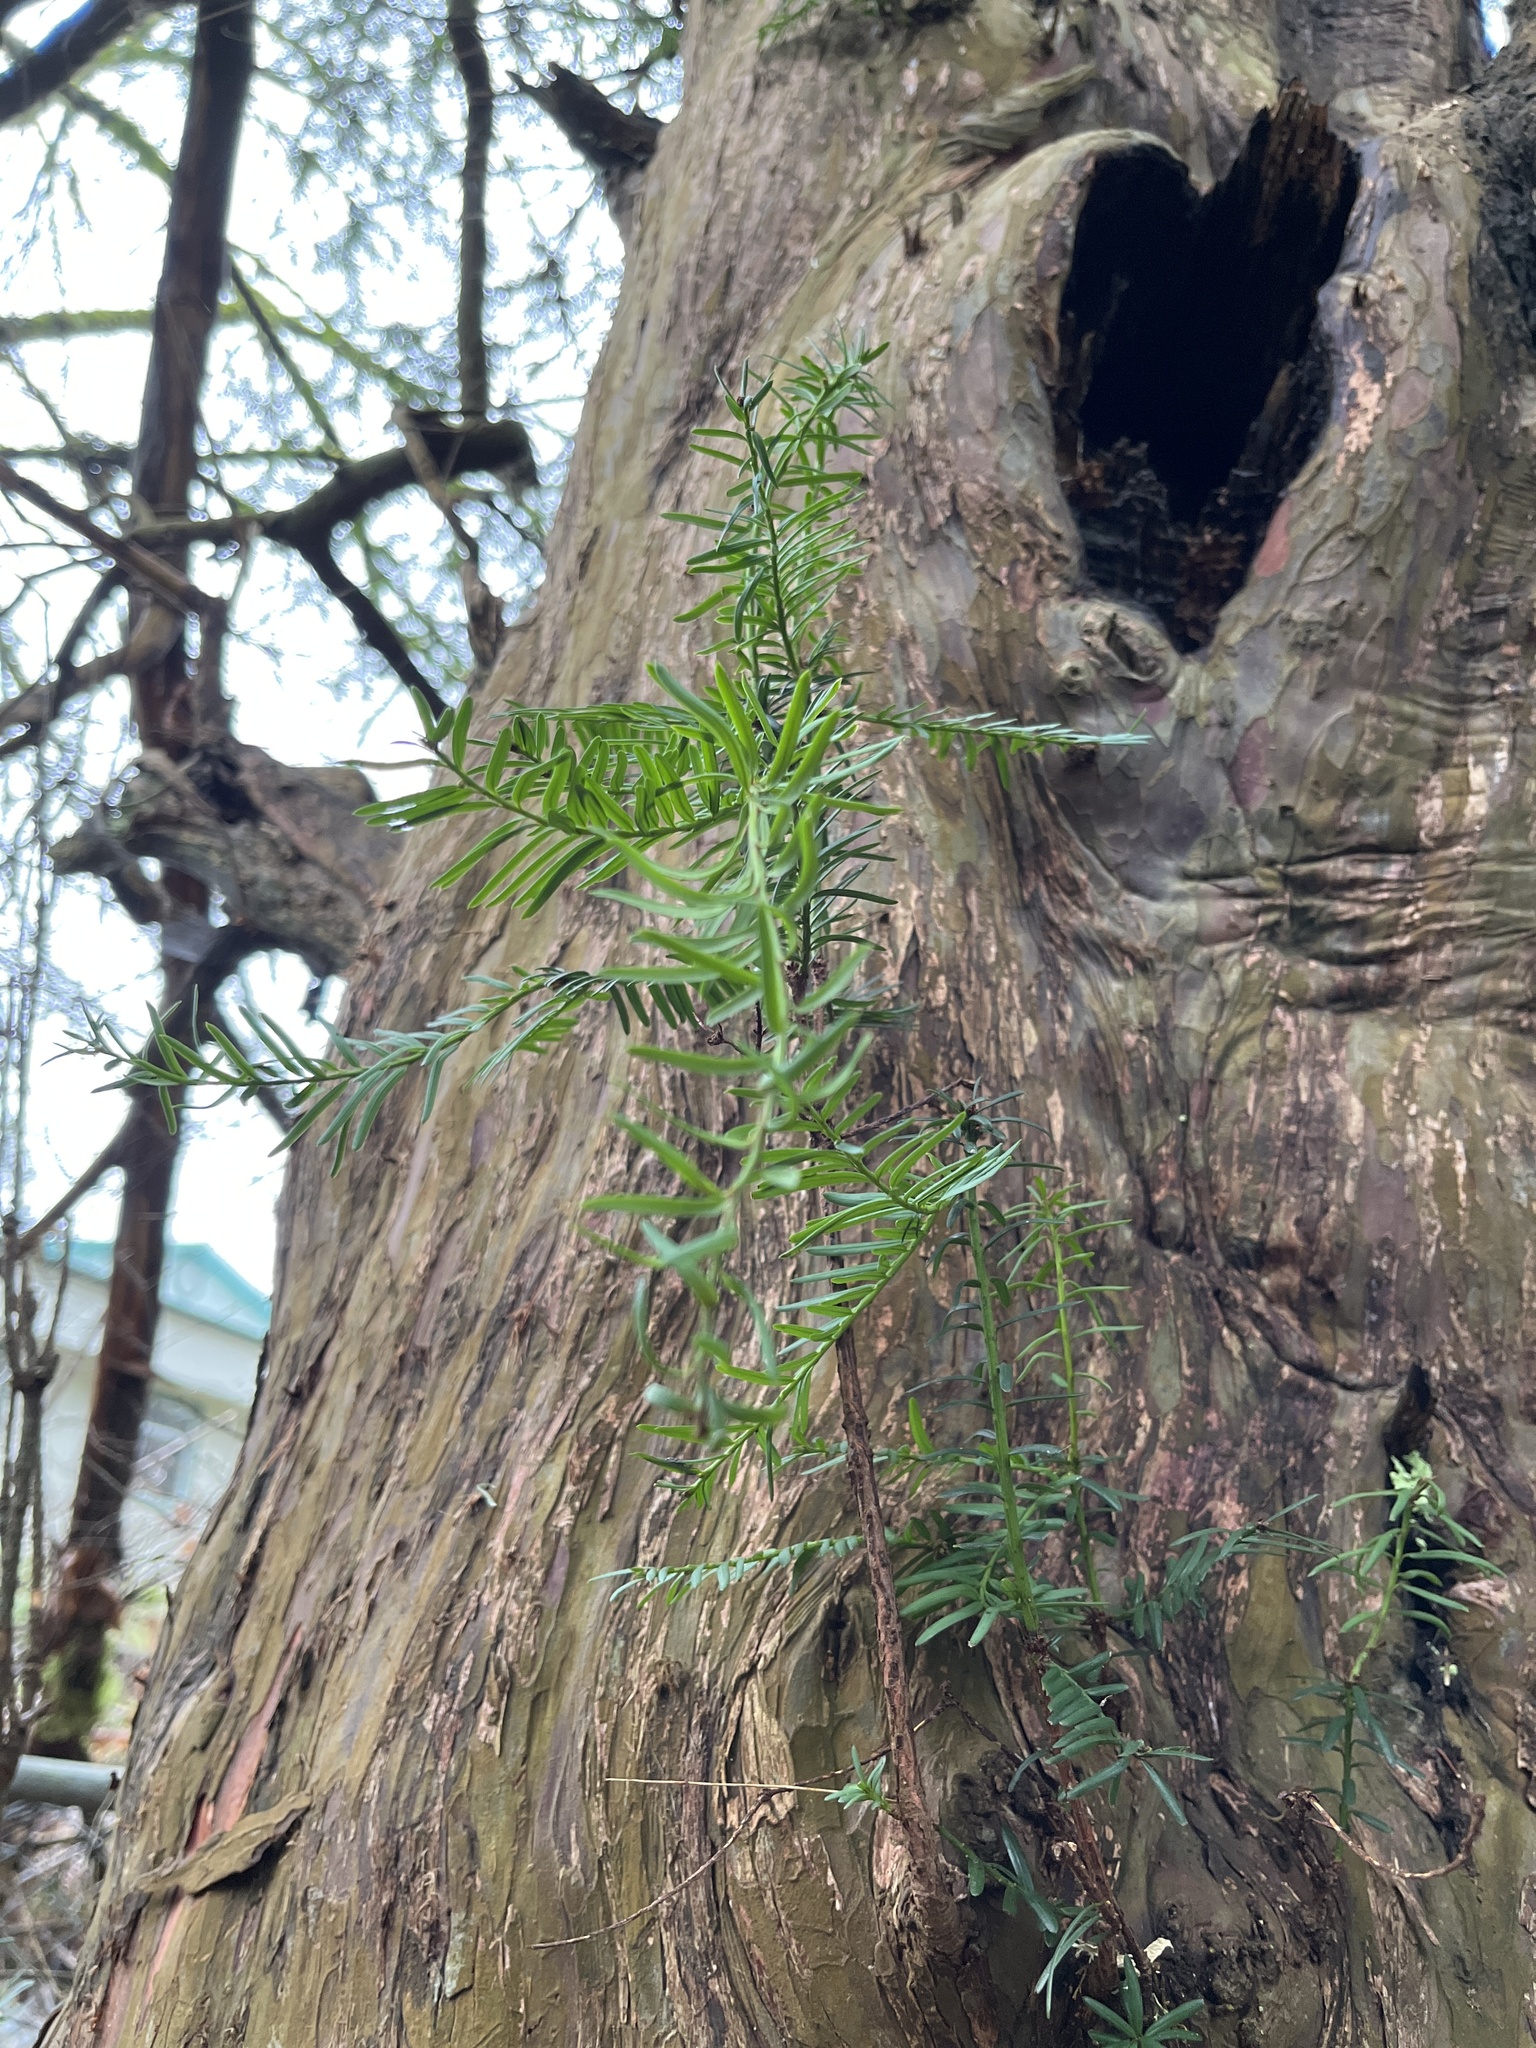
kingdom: Plantae
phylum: Tracheophyta
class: Pinopsida
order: Pinales
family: Taxaceae
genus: Taxus
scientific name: Taxus brevifolia
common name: Pacific yew
